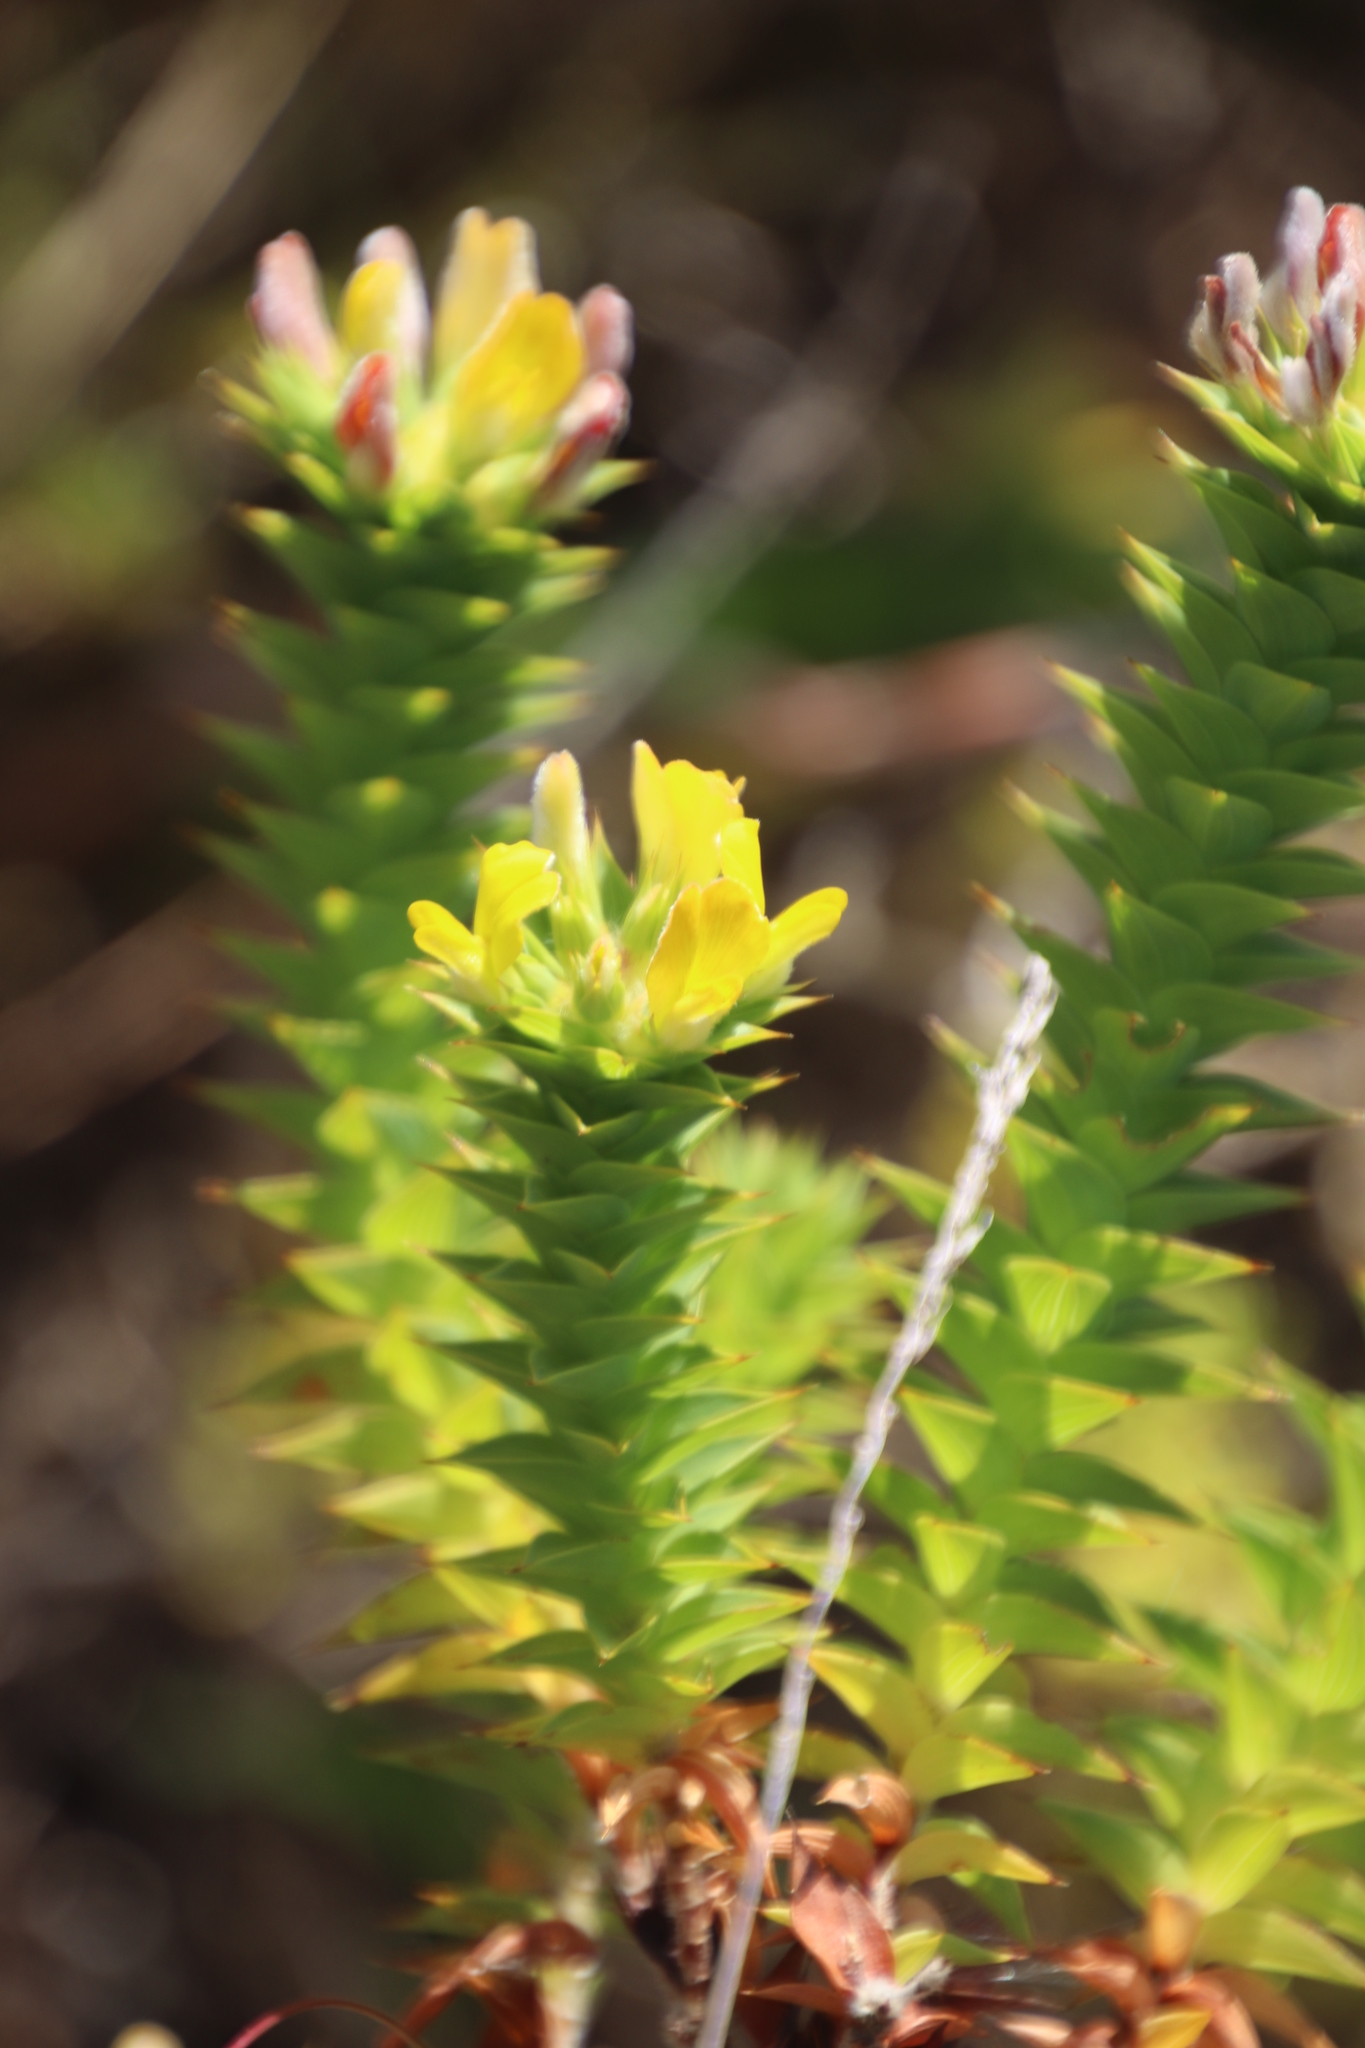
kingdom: Plantae
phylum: Tracheophyta
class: Magnoliopsida
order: Fabales
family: Fabaceae
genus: Aspalathus
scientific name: Aspalathus cordata
